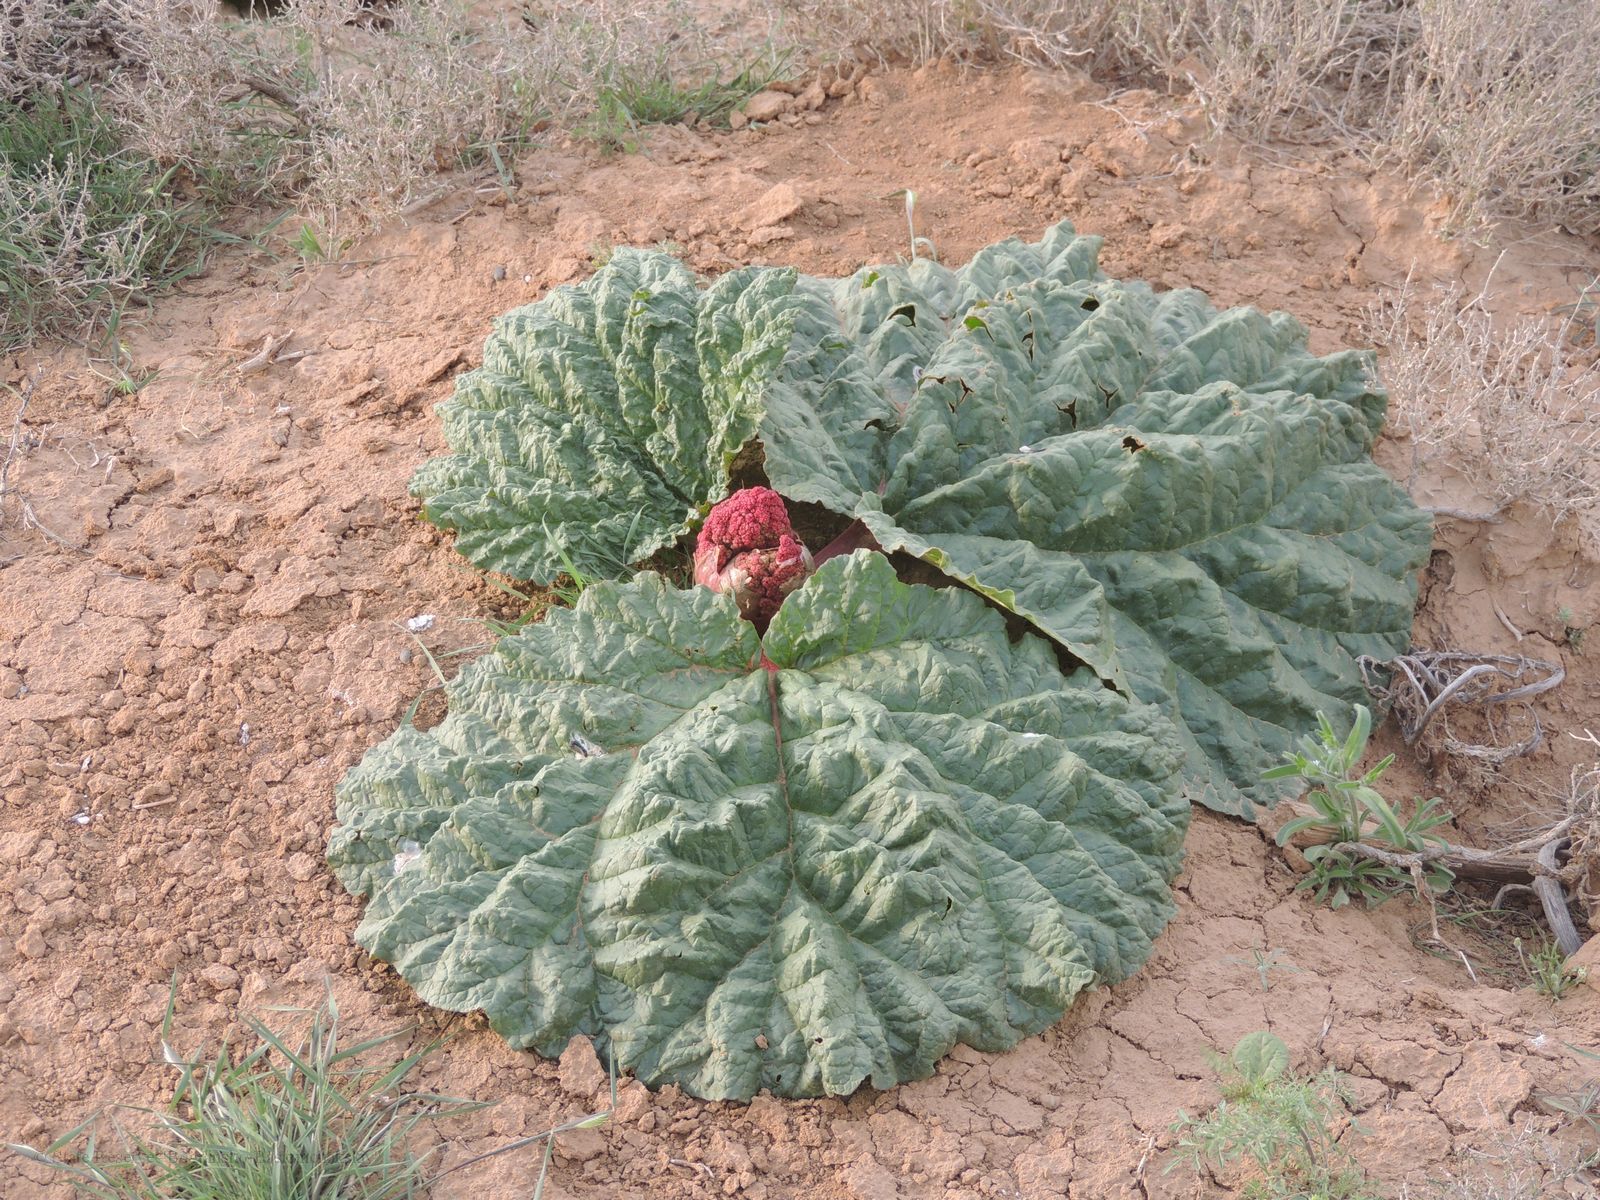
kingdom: Plantae
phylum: Tracheophyta
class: Magnoliopsida
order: Caryophyllales
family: Polygonaceae
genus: Rheum
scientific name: Rheum tataricum
